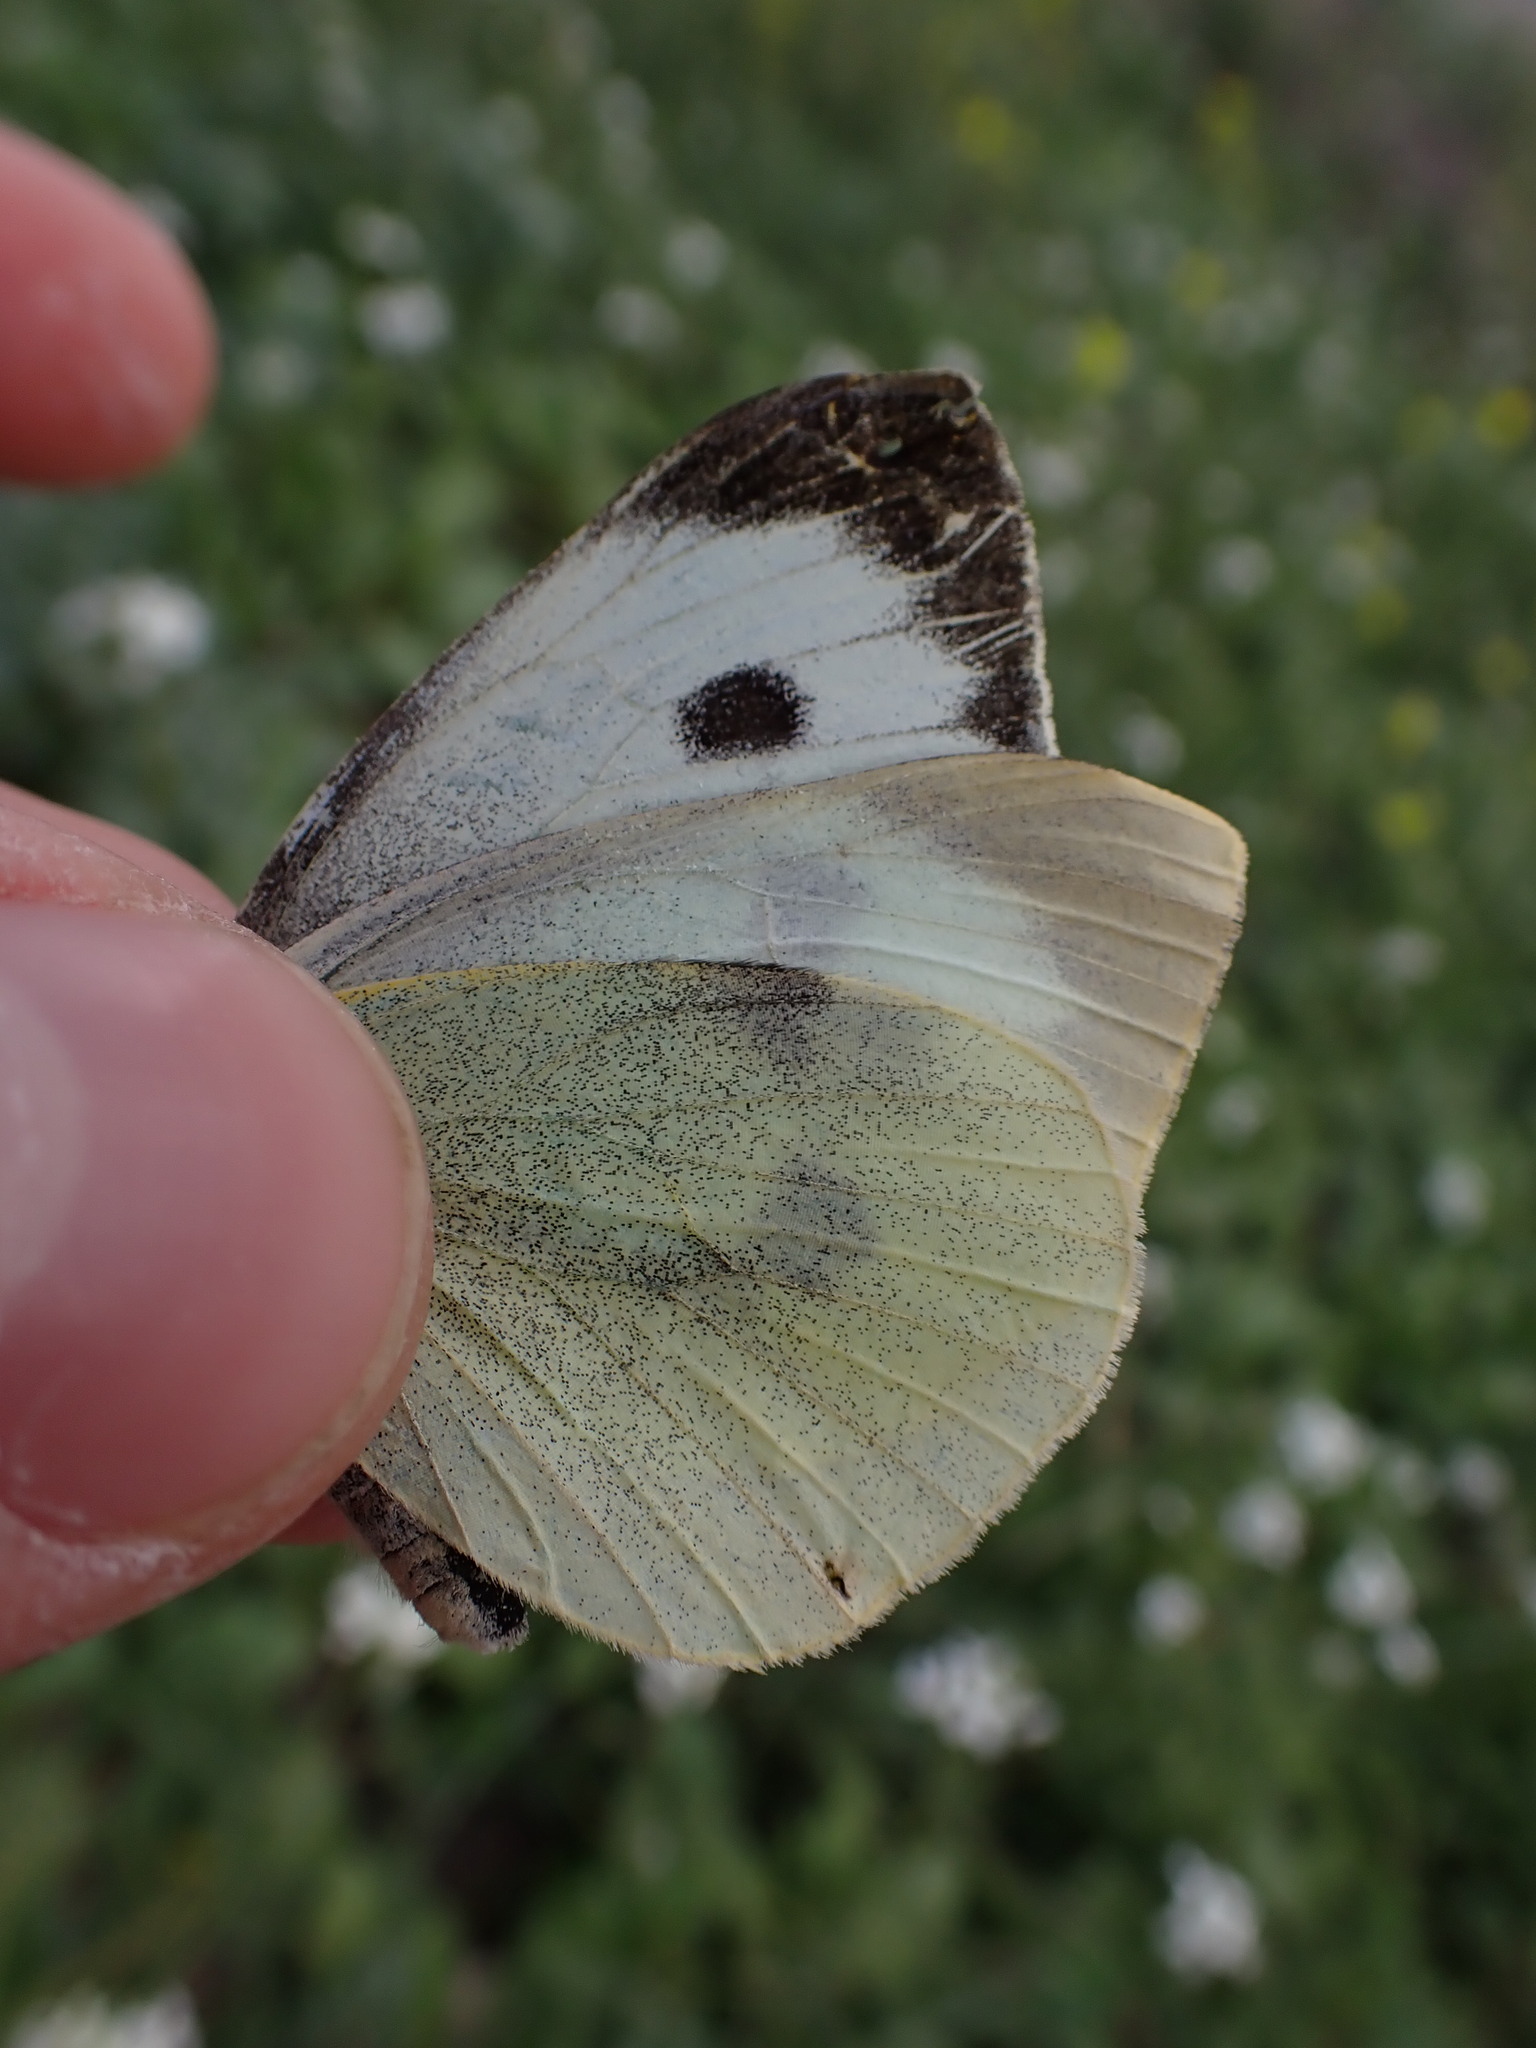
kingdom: Animalia
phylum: Arthropoda
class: Insecta
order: Lepidoptera
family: Pieridae
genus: Pieris
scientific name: Pieris brassicae
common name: Large white
